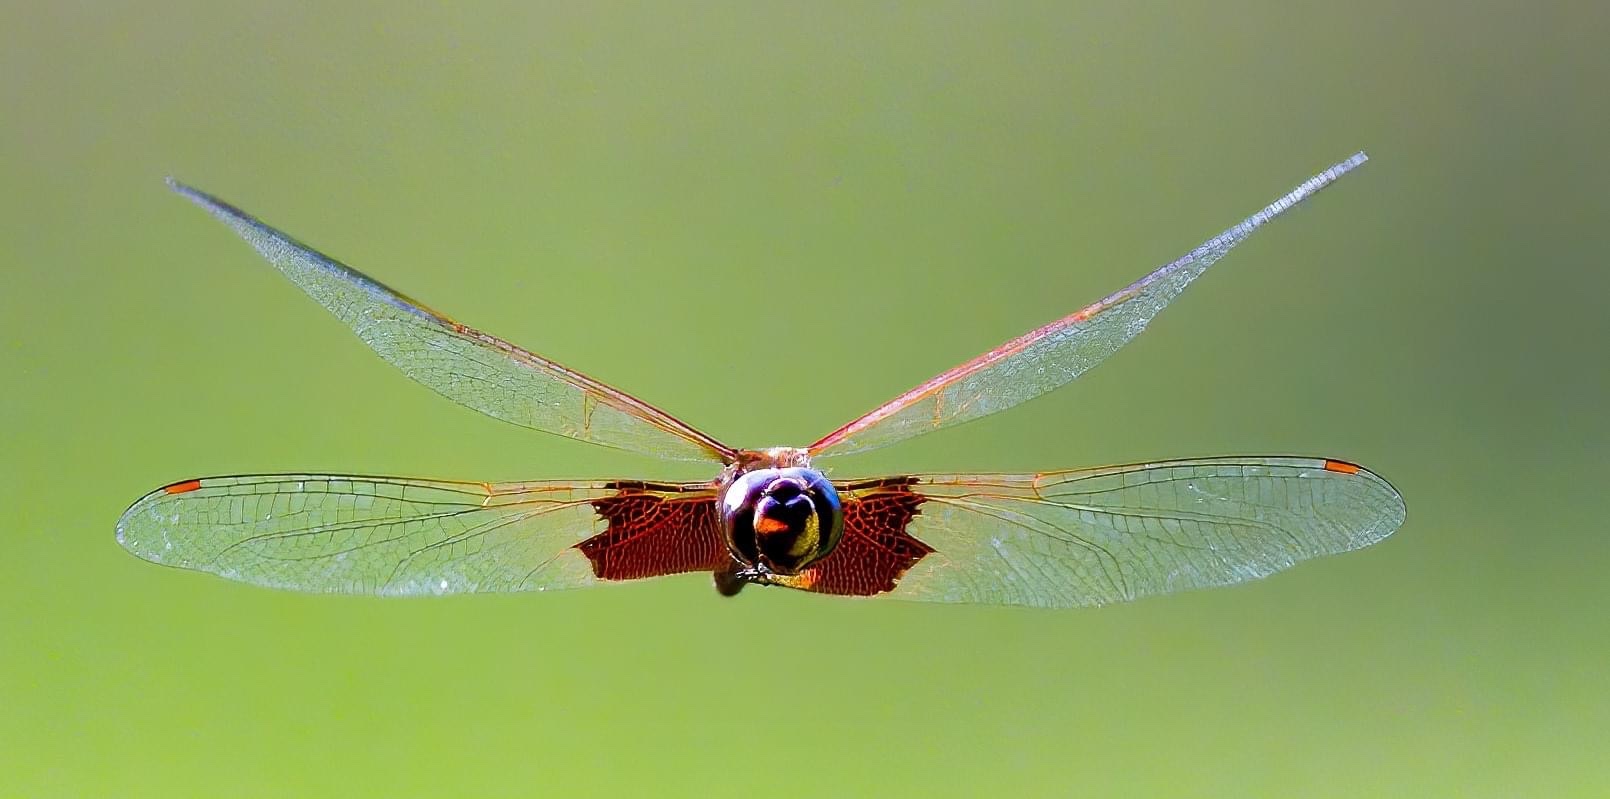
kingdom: Animalia
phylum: Arthropoda
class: Insecta
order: Odonata
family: Libellulidae
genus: Tramea
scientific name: Tramea carolina
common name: Carolina saddlebags
